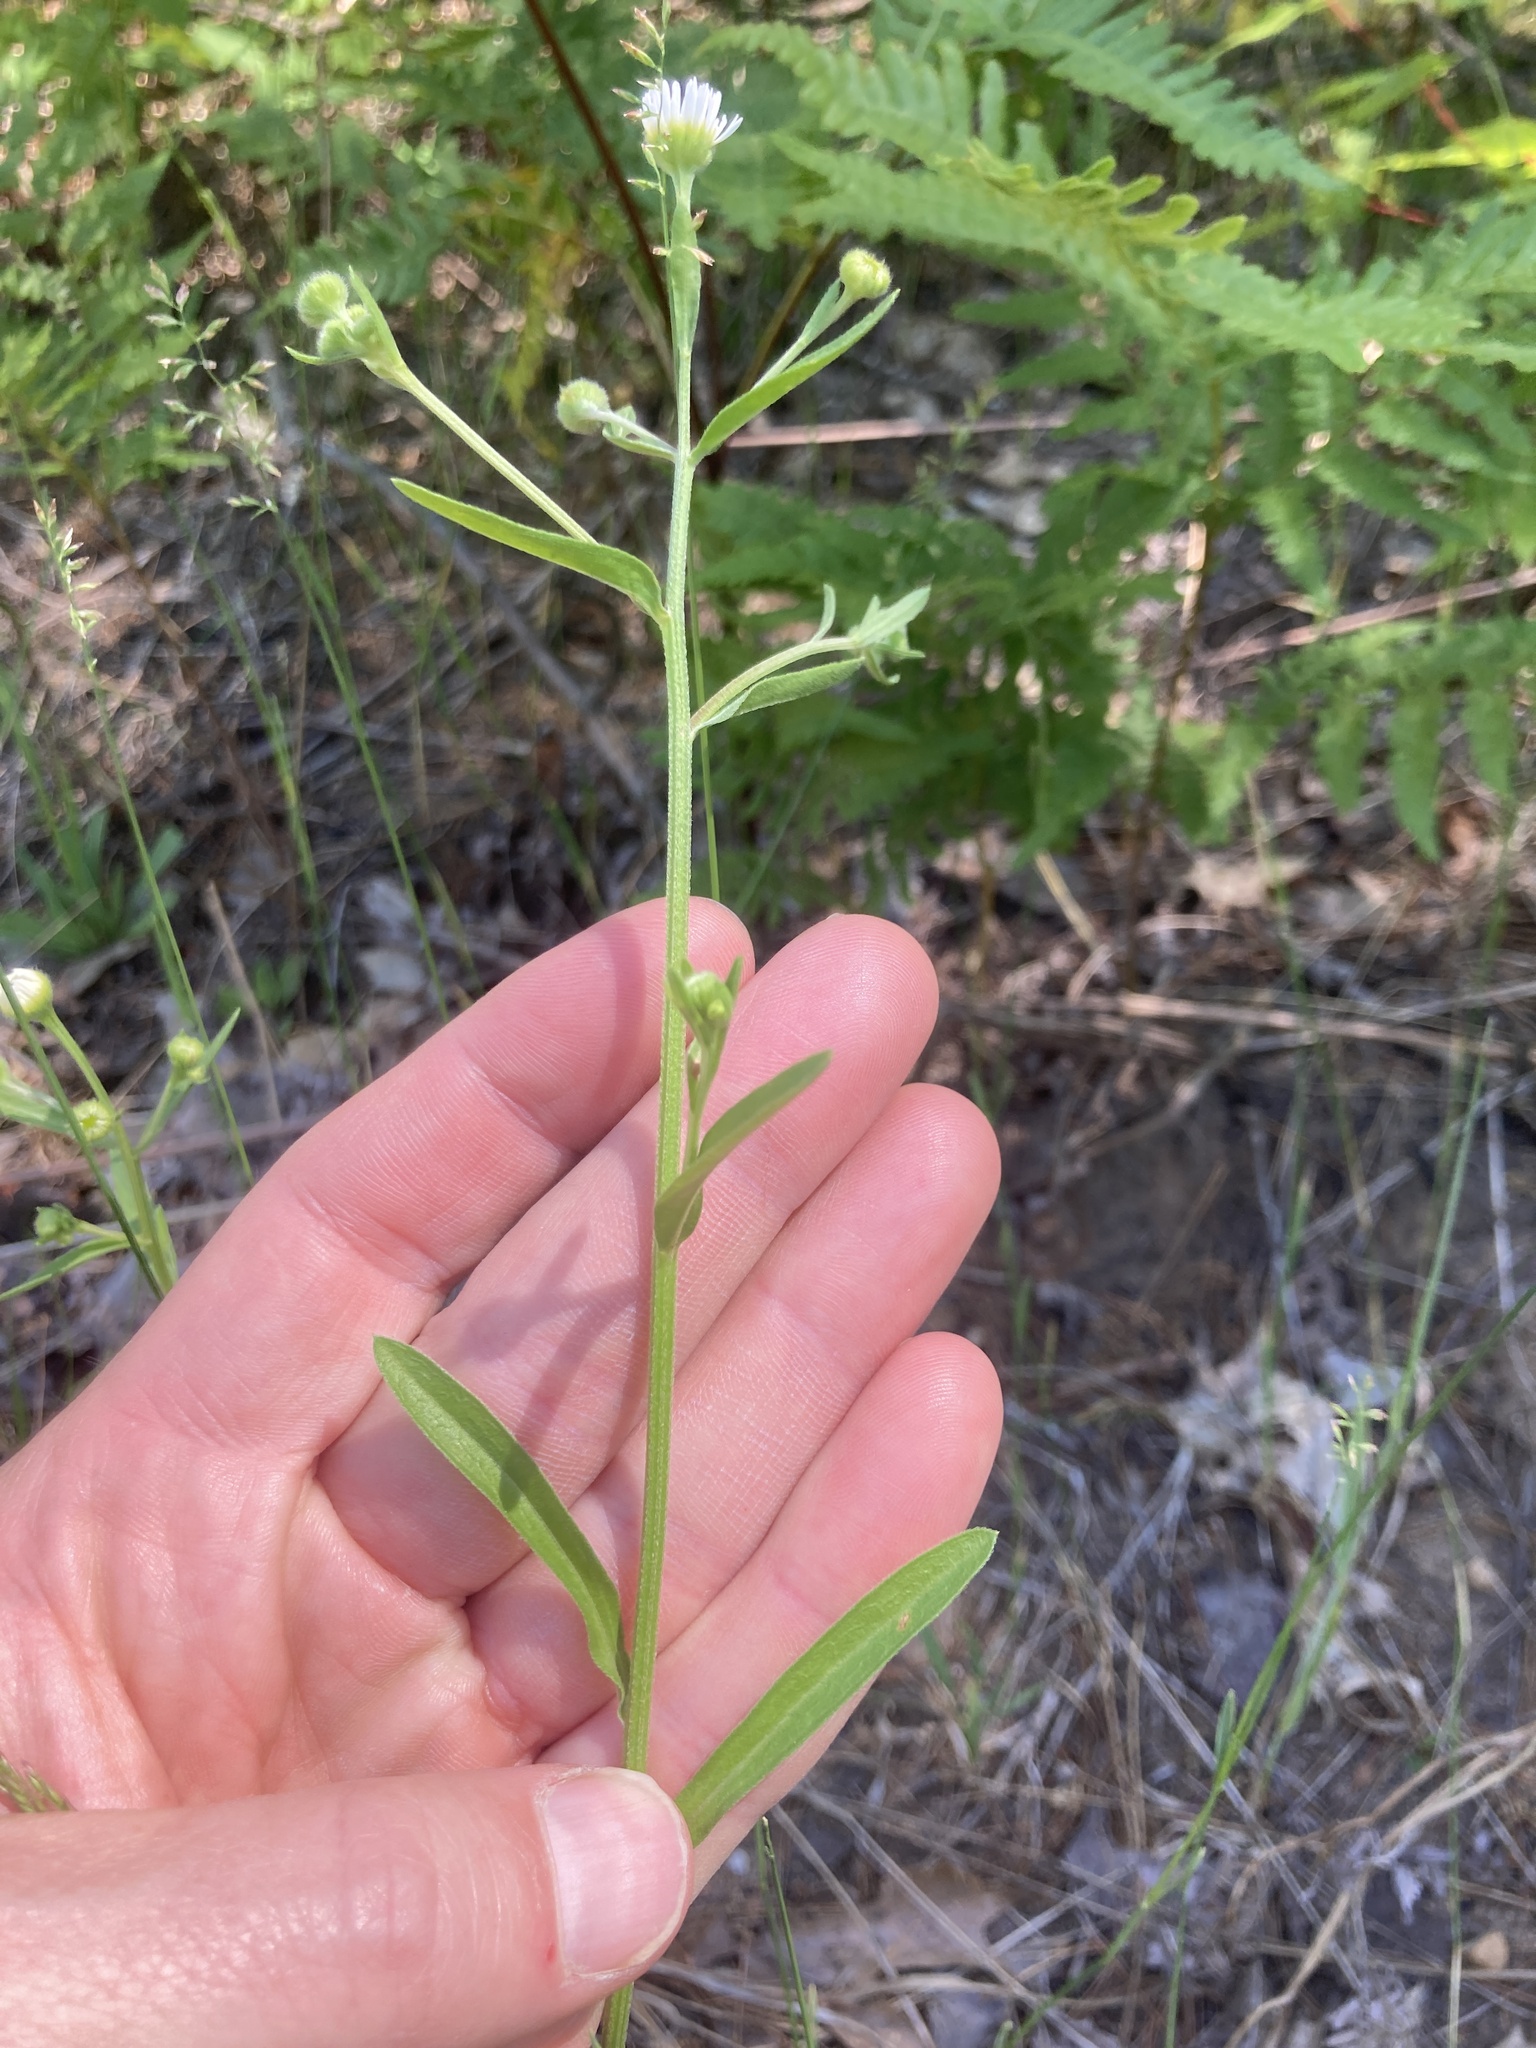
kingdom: Plantae
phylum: Tracheophyta
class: Magnoliopsida
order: Asterales
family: Asteraceae
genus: Erigeron
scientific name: Erigeron strigosus
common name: Common eastern fleabane
